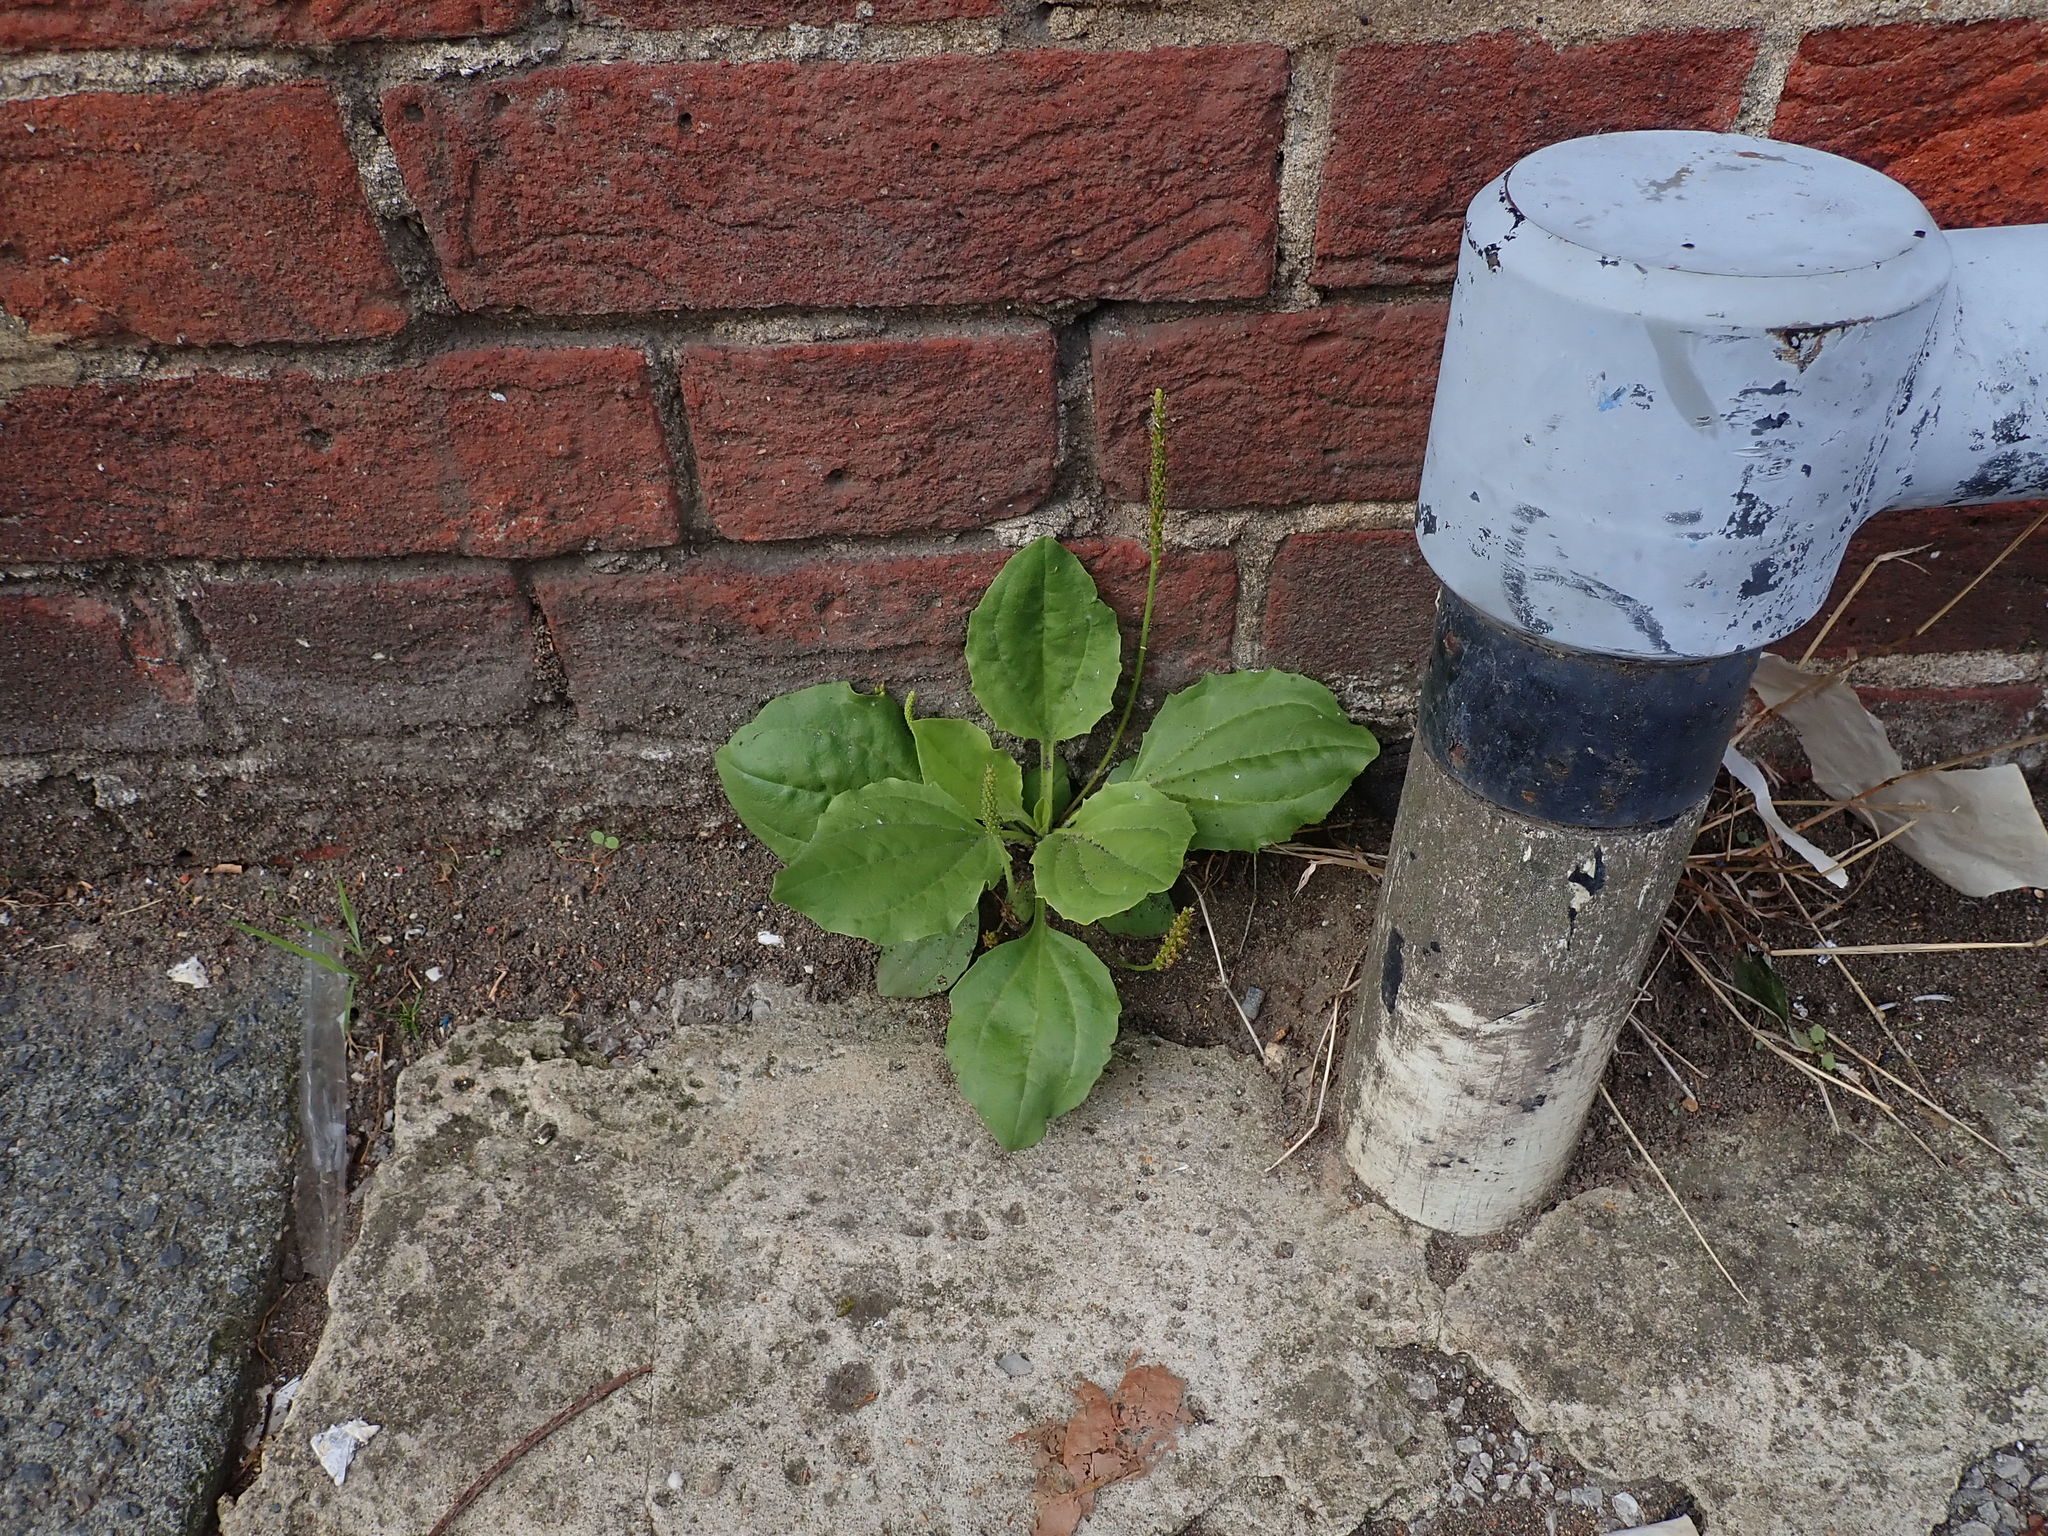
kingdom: Plantae
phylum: Tracheophyta
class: Magnoliopsida
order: Lamiales
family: Plantaginaceae
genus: Plantago
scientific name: Plantago major
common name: Common plantain
